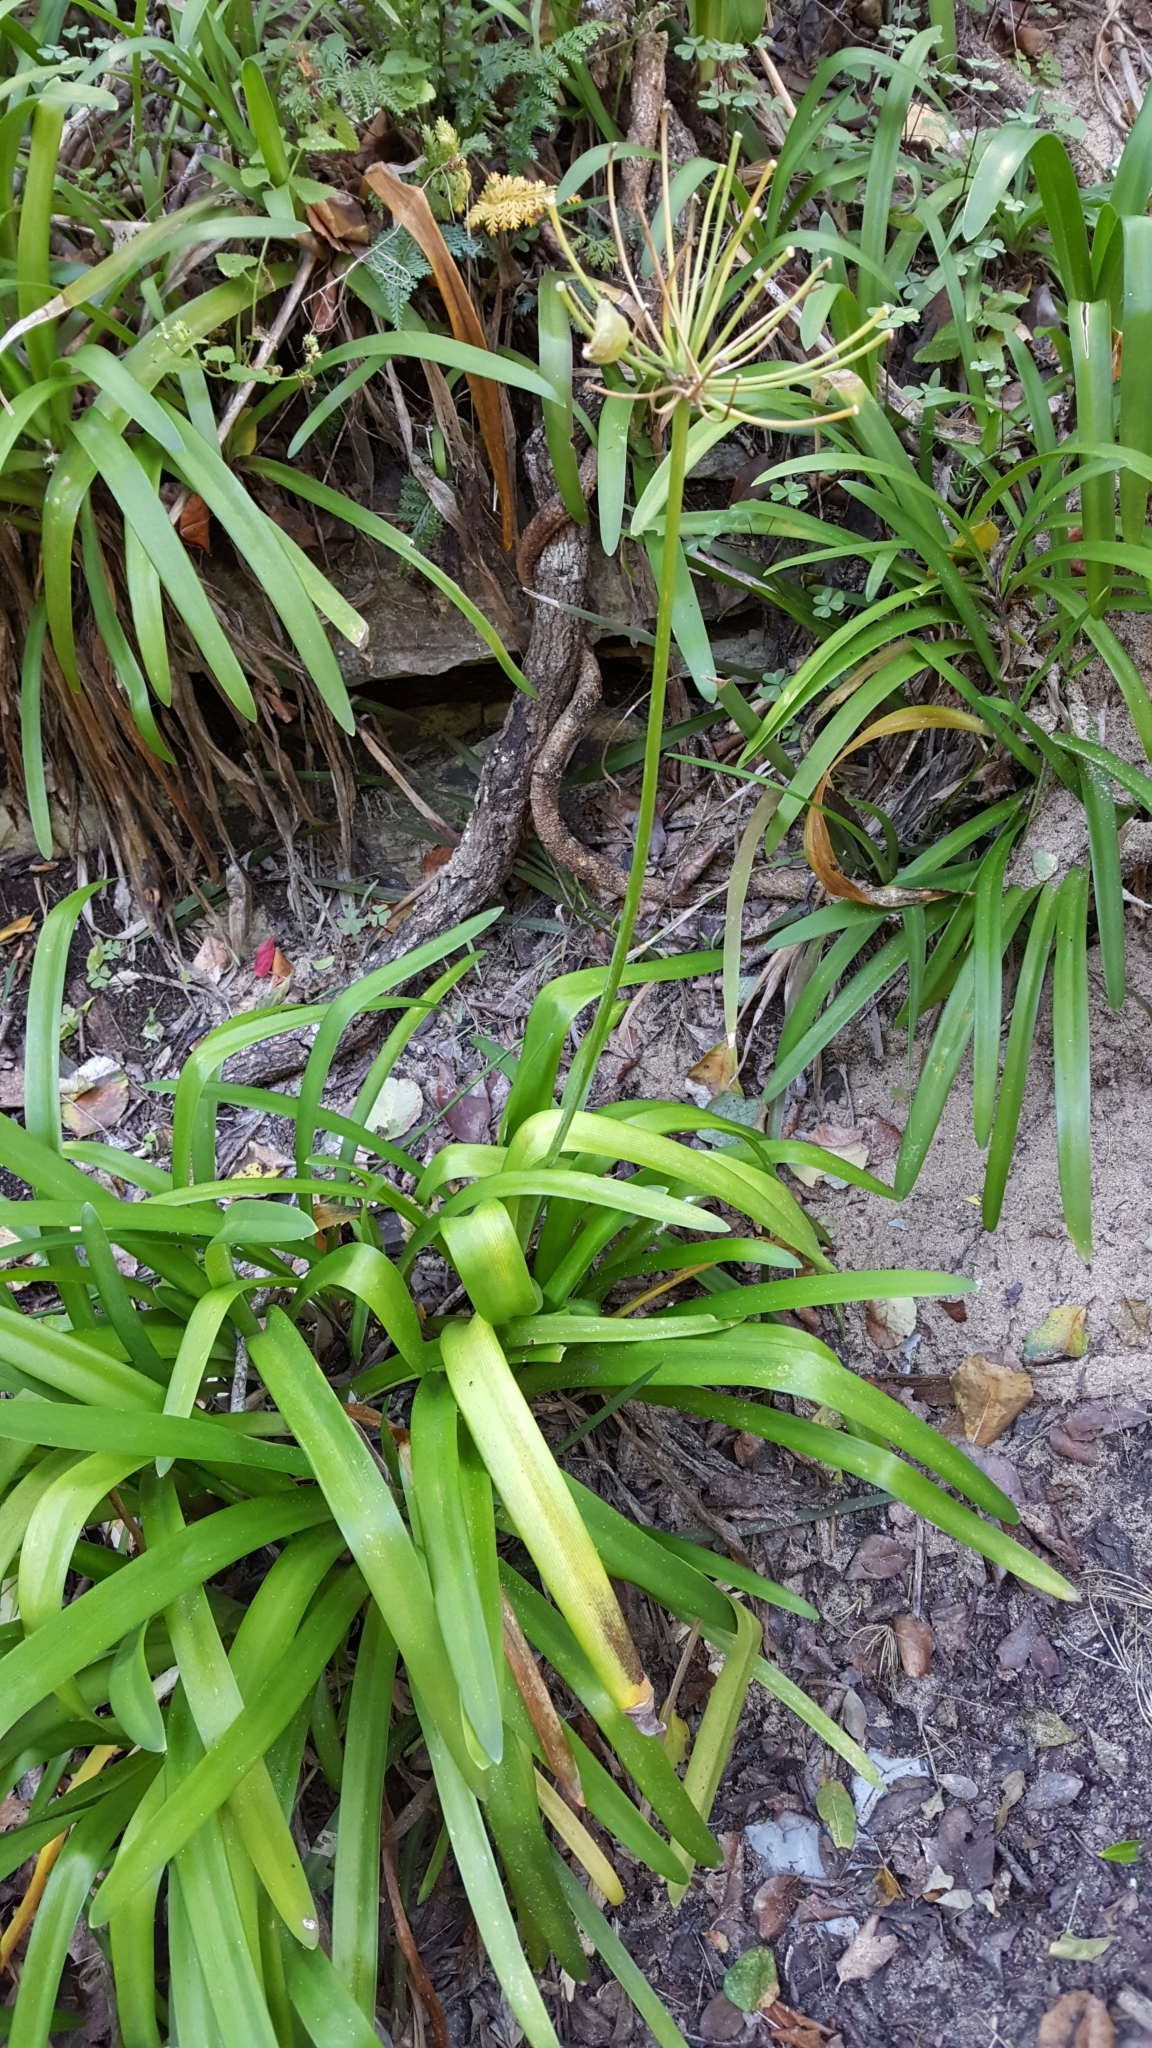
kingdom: Plantae
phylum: Tracheophyta
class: Liliopsida
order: Asparagales
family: Amaryllidaceae
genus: Agapanthus
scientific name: Agapanthus praecox
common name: African-lily
